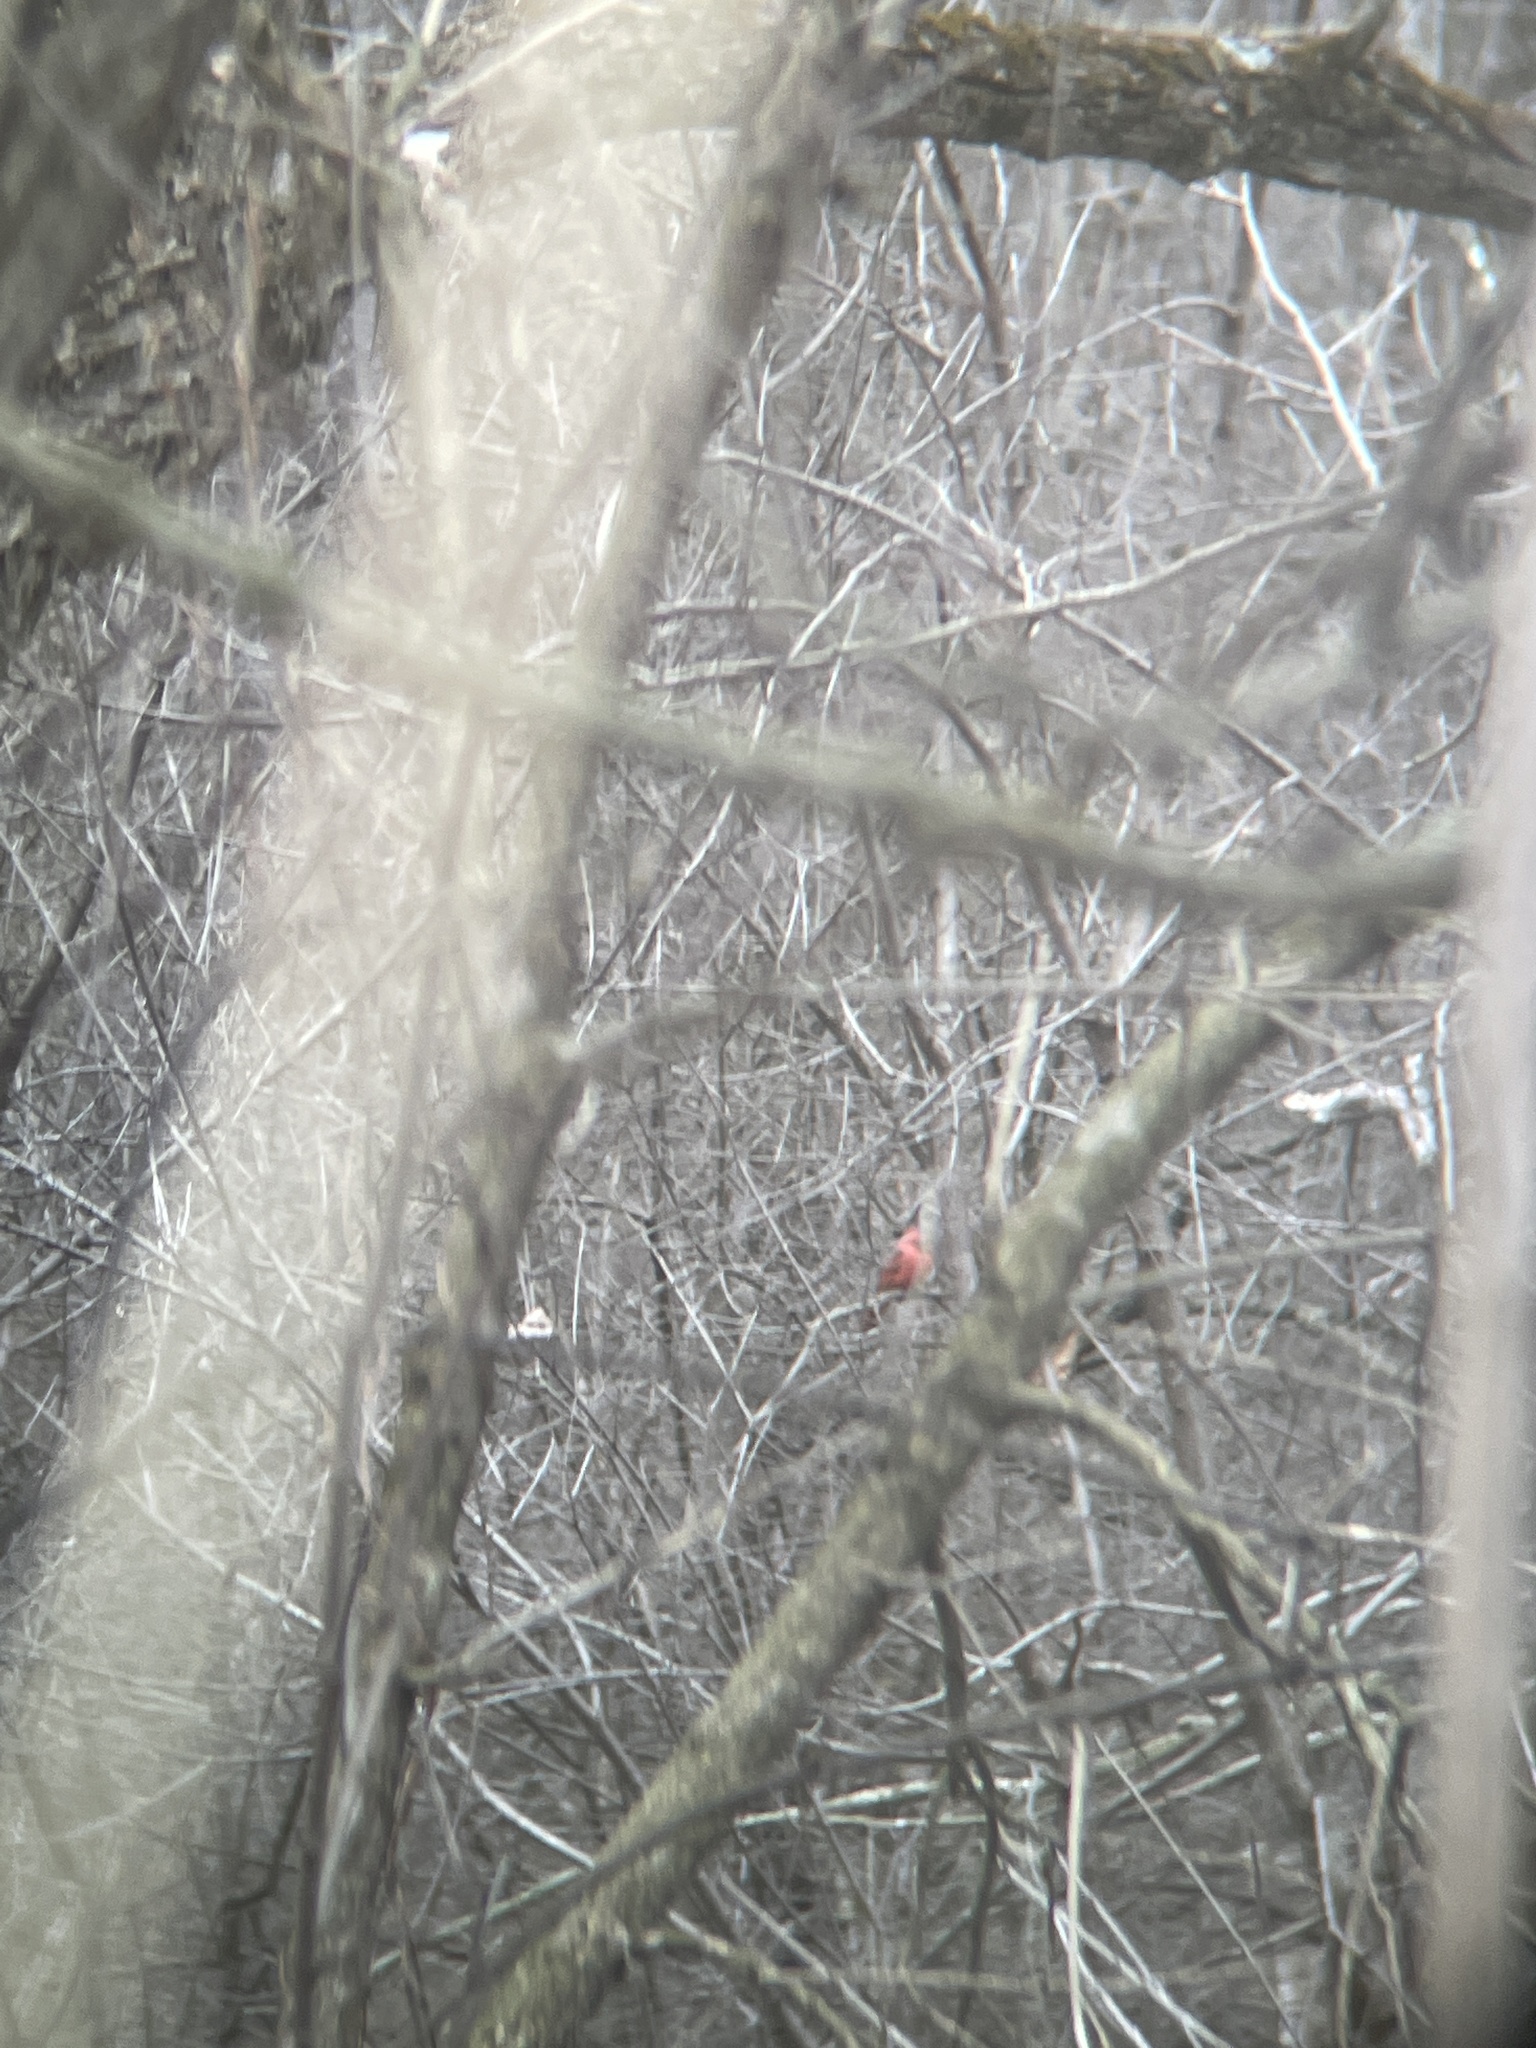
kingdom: Animalia
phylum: Chordata
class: Aves
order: Passeriformes
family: Cardinalidae
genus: Cardinalis
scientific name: Cardinalis cardinalis
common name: Northern cardinal
